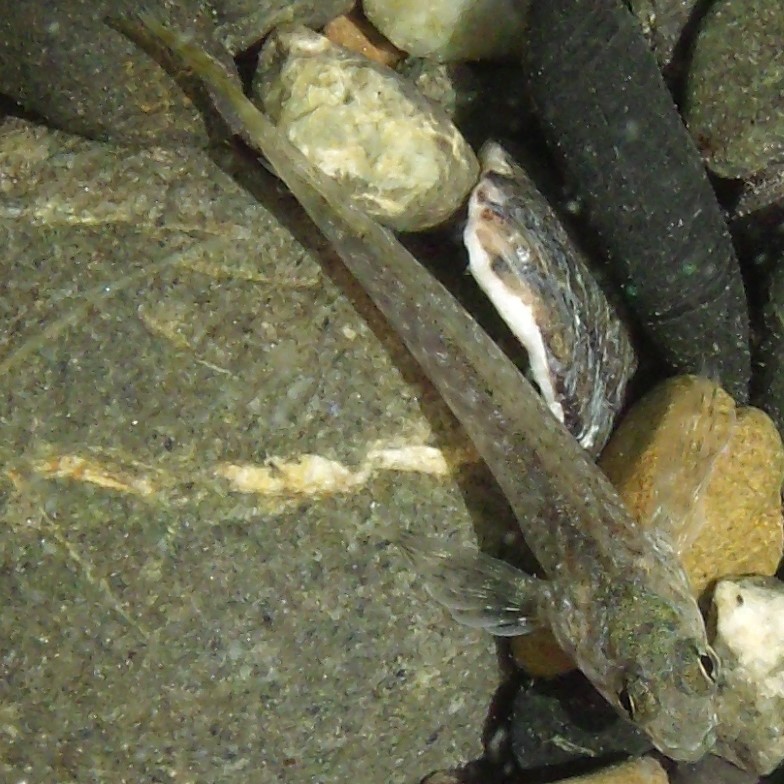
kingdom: Animalia
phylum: Chordata
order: Perciformes
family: Tripterygiidae
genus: Bellapiscis
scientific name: Bellapiscis medius
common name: Twister
